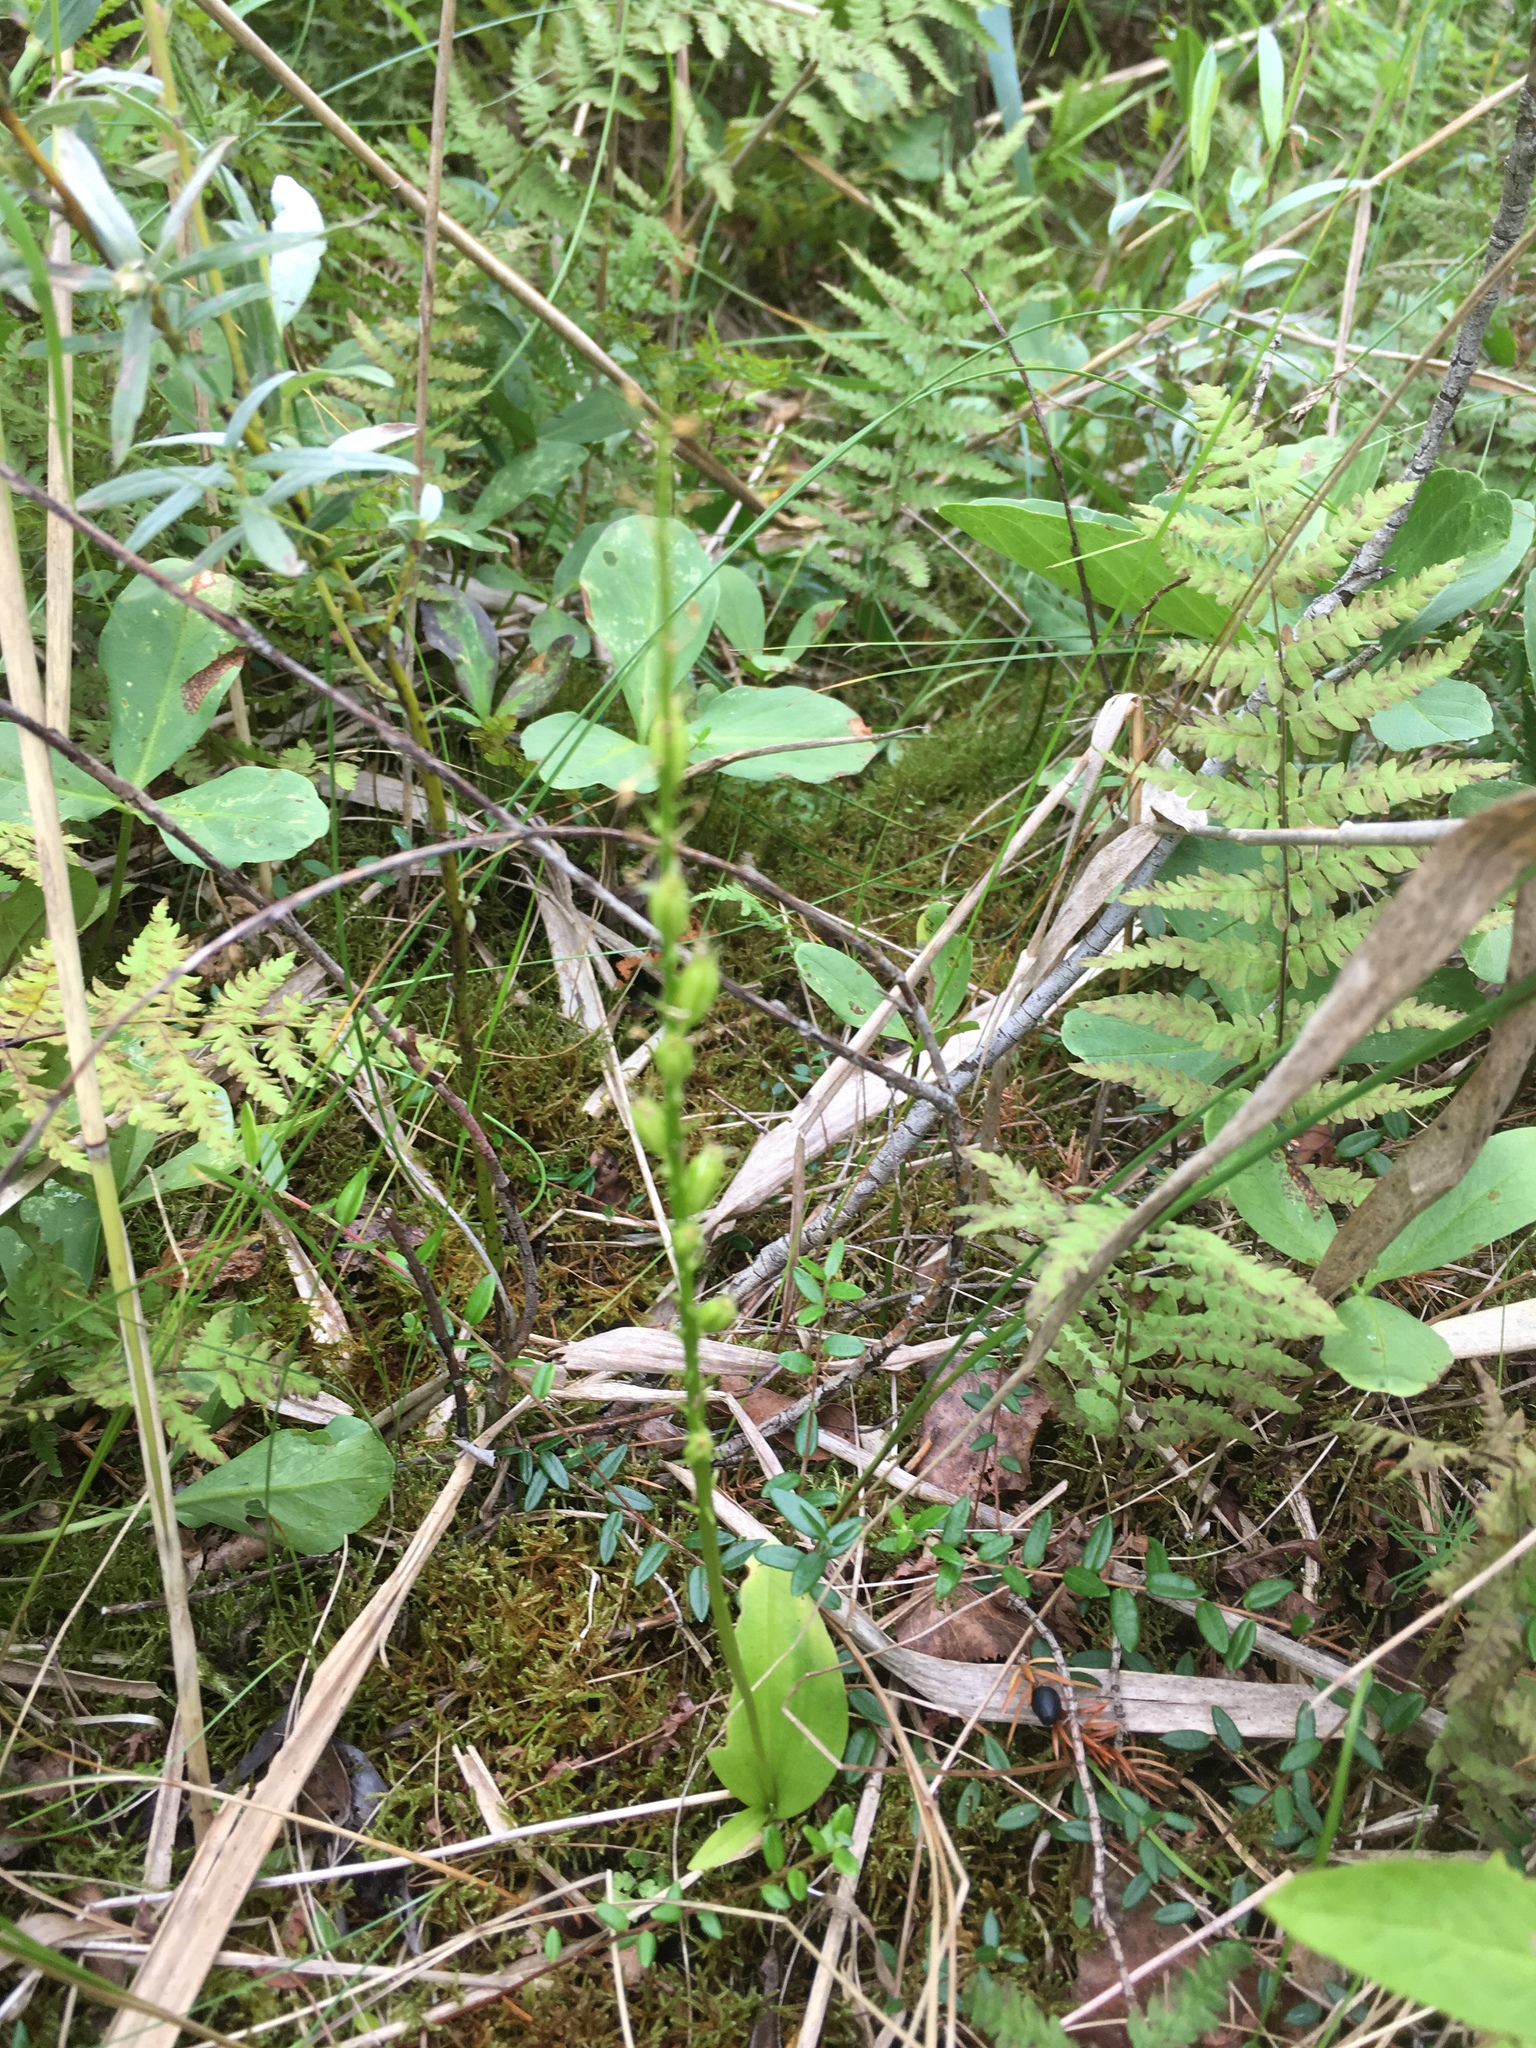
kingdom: Plantae
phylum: Tracheophyta
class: Liliopsida
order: Asparagales
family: Orchidaceae
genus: Malaxis
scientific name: Malaxis monophyllos
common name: White adder's-mouth
